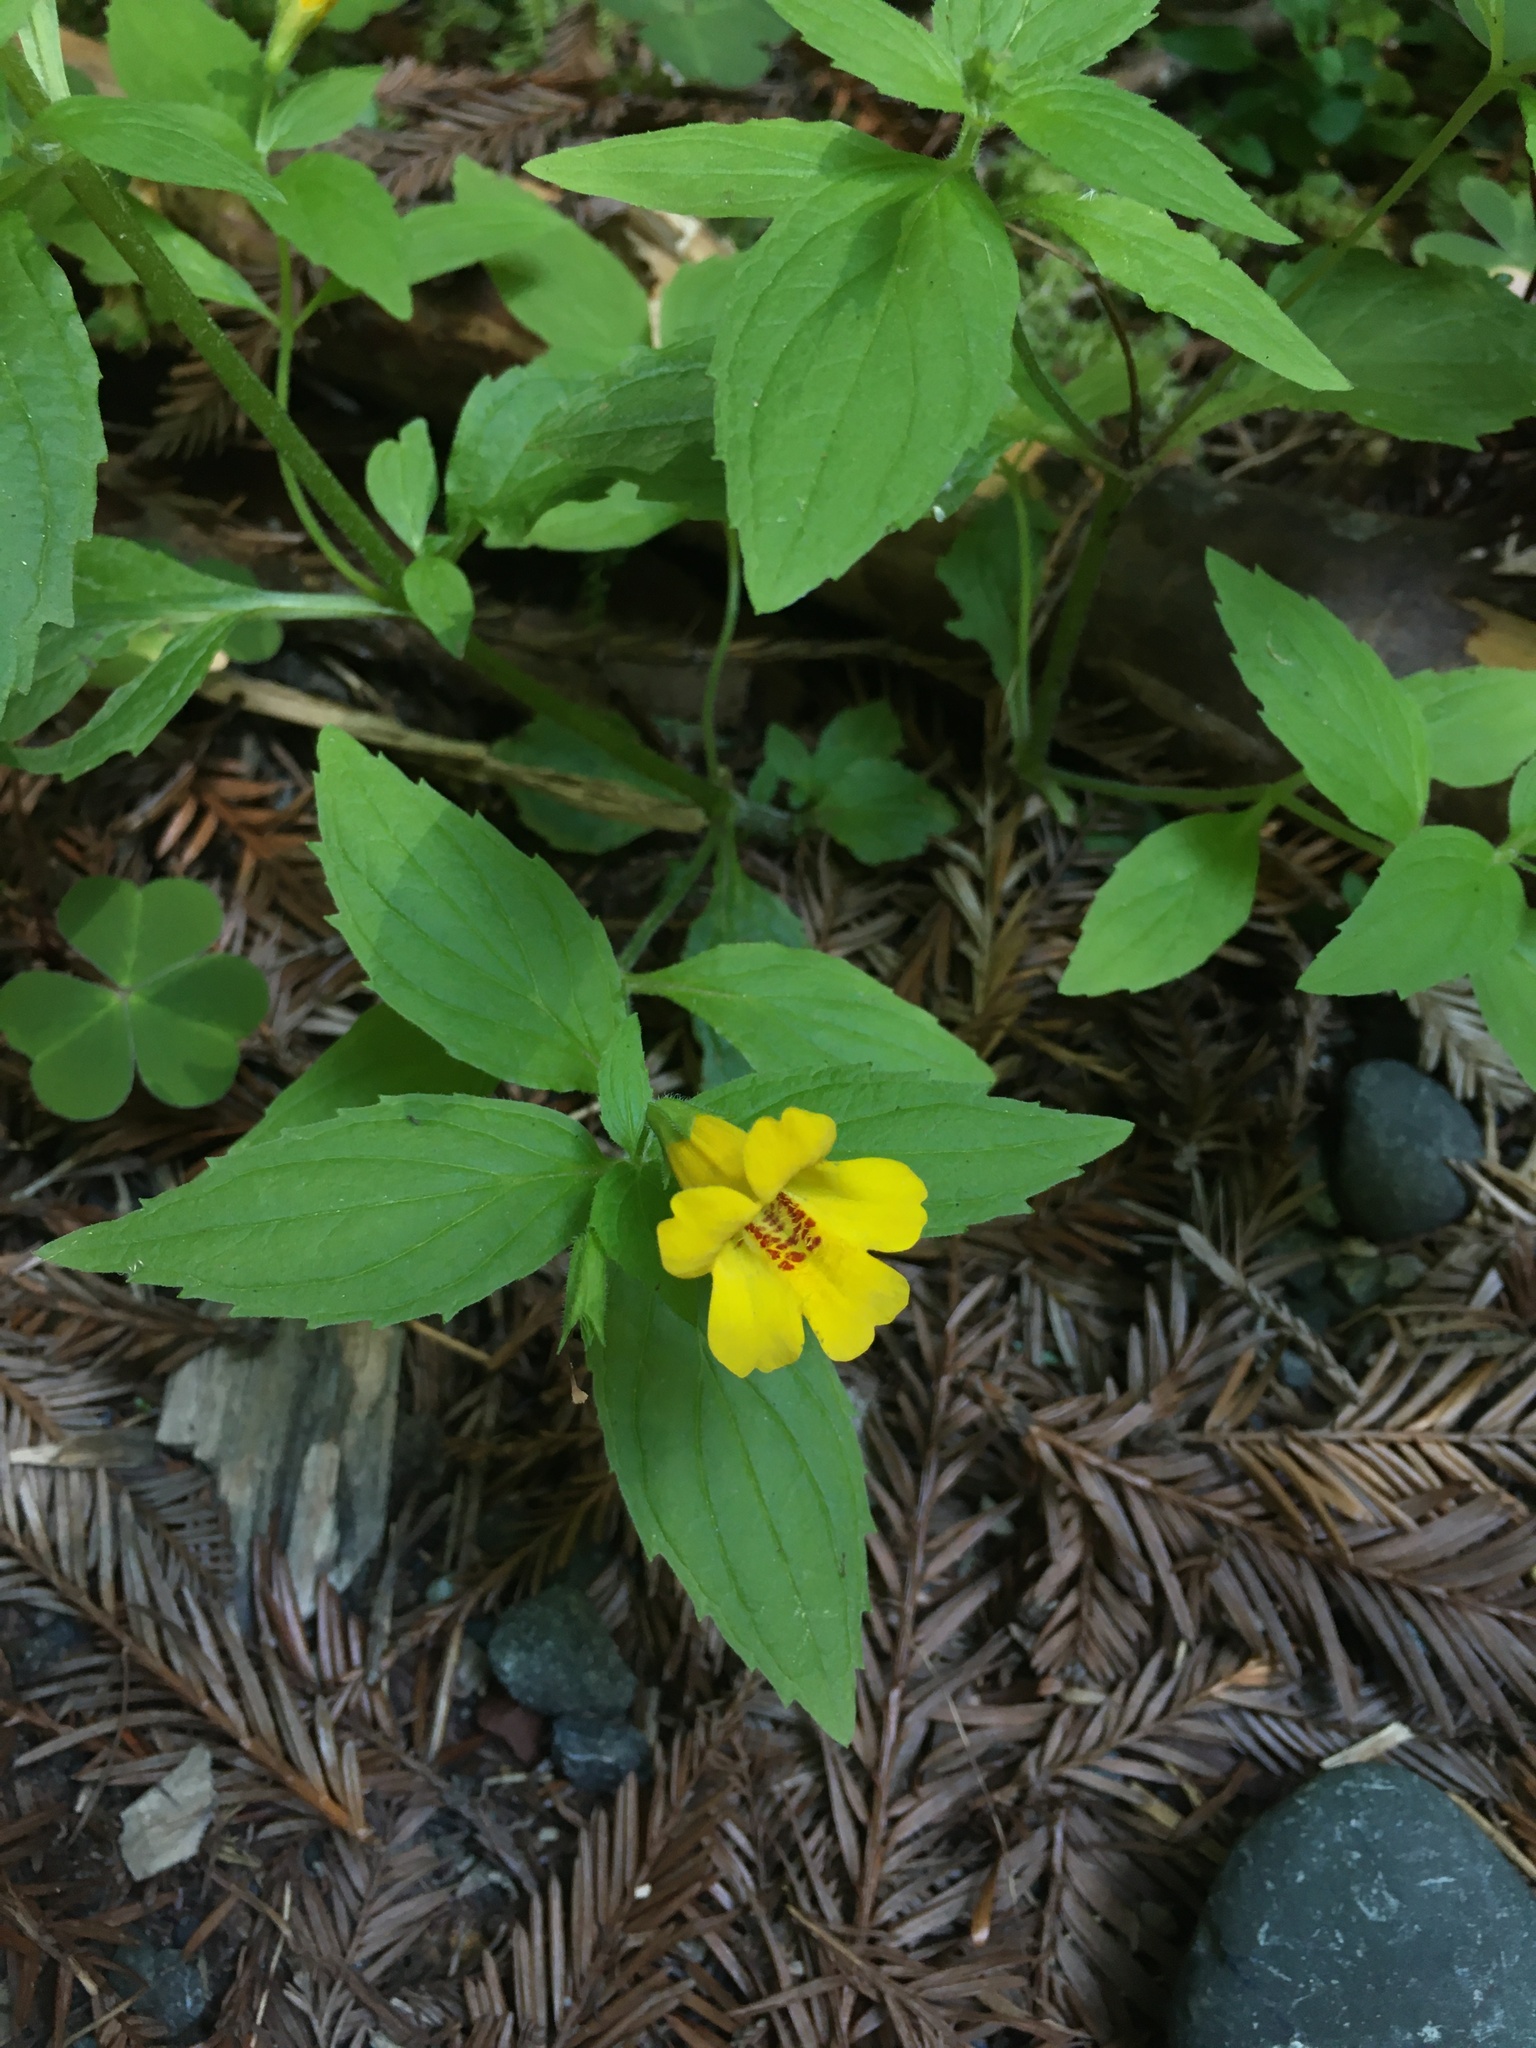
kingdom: Plantae
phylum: Tracheophyta
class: Magnoliopsida
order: Lamiales
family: Phrymaceae
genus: Erythranthe
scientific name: Erythranthe dentata
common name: Coastal monkeyflower
